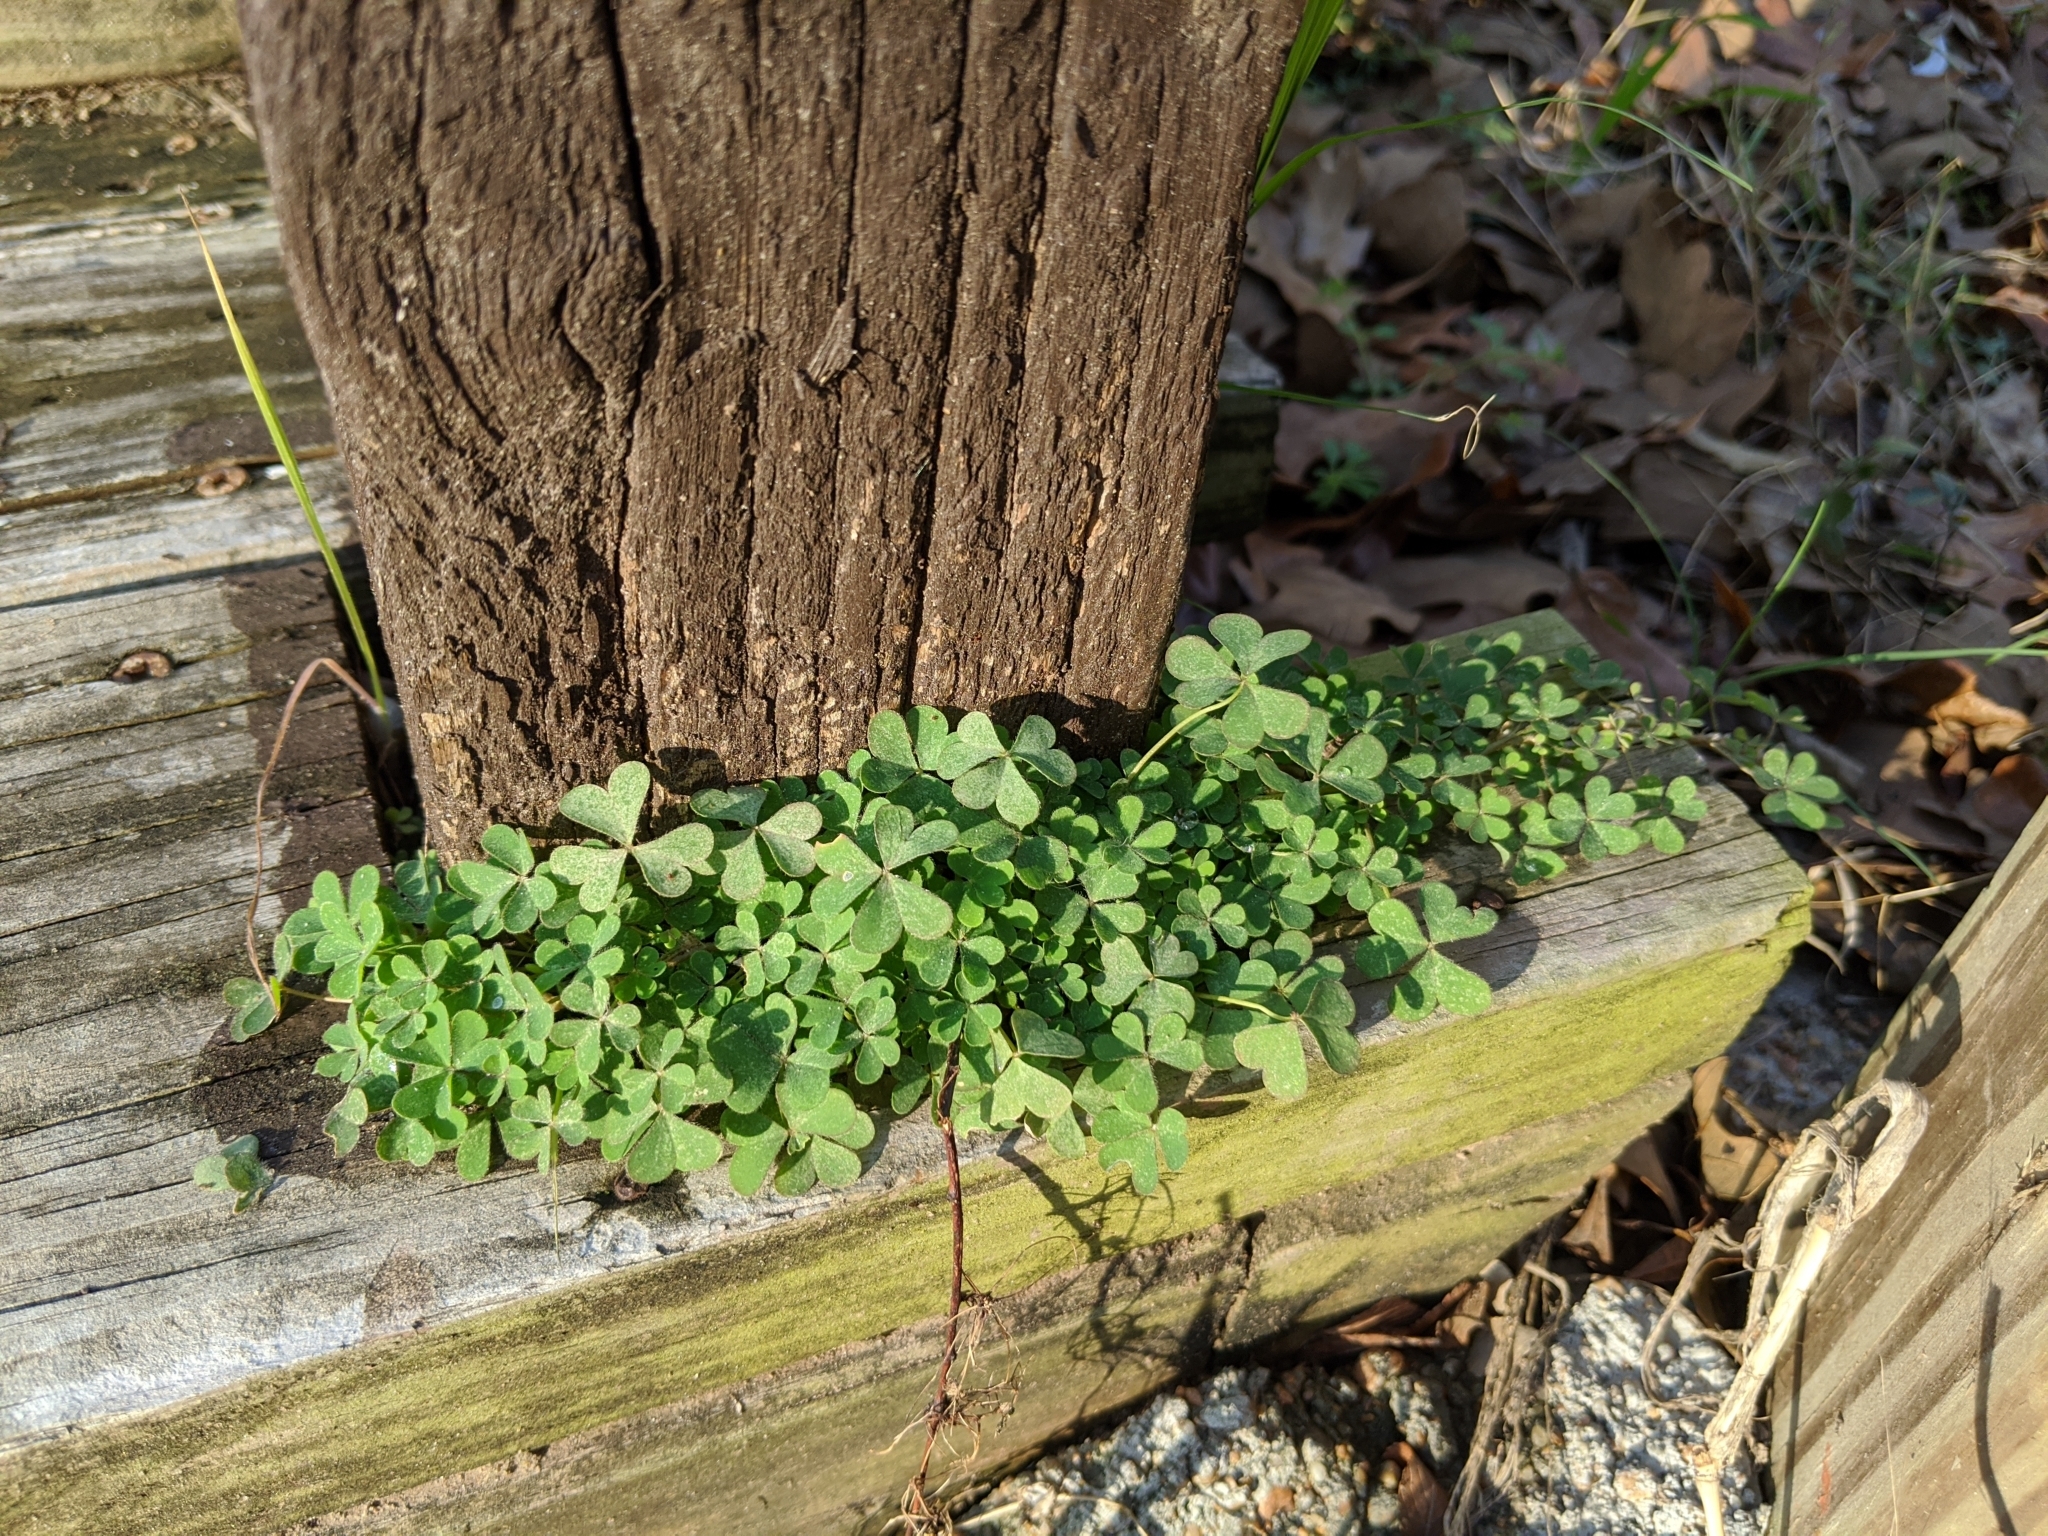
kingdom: Plantae
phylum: Tracheophyta
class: Magnoliopsida
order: Oxalidales
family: Oxalidaceae
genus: Oxalis
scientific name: Oxalis corniculata
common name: Procumbent yellow-sorrel
